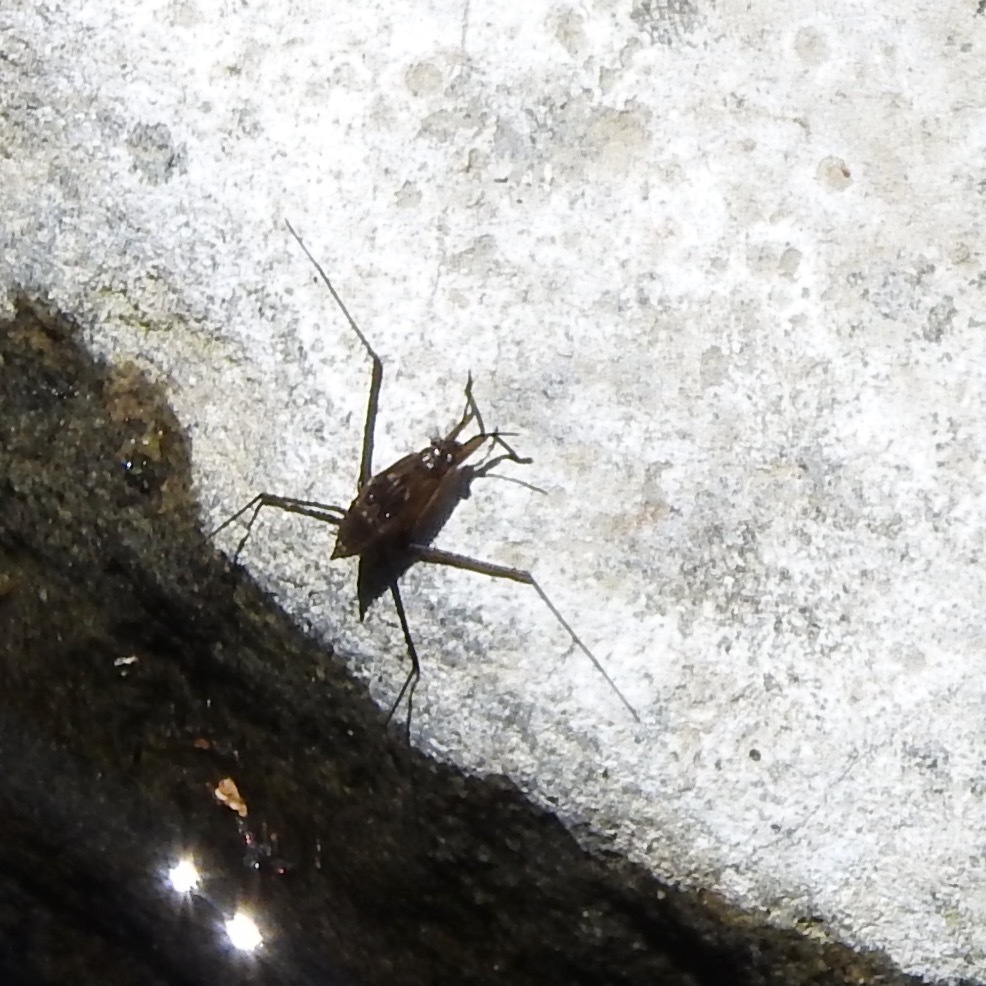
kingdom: Animalia
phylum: Arthropoda
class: Insecta
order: Hemiptera
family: Gerridae
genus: Aquarius
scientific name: Aquarius remigis
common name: Common water strider
